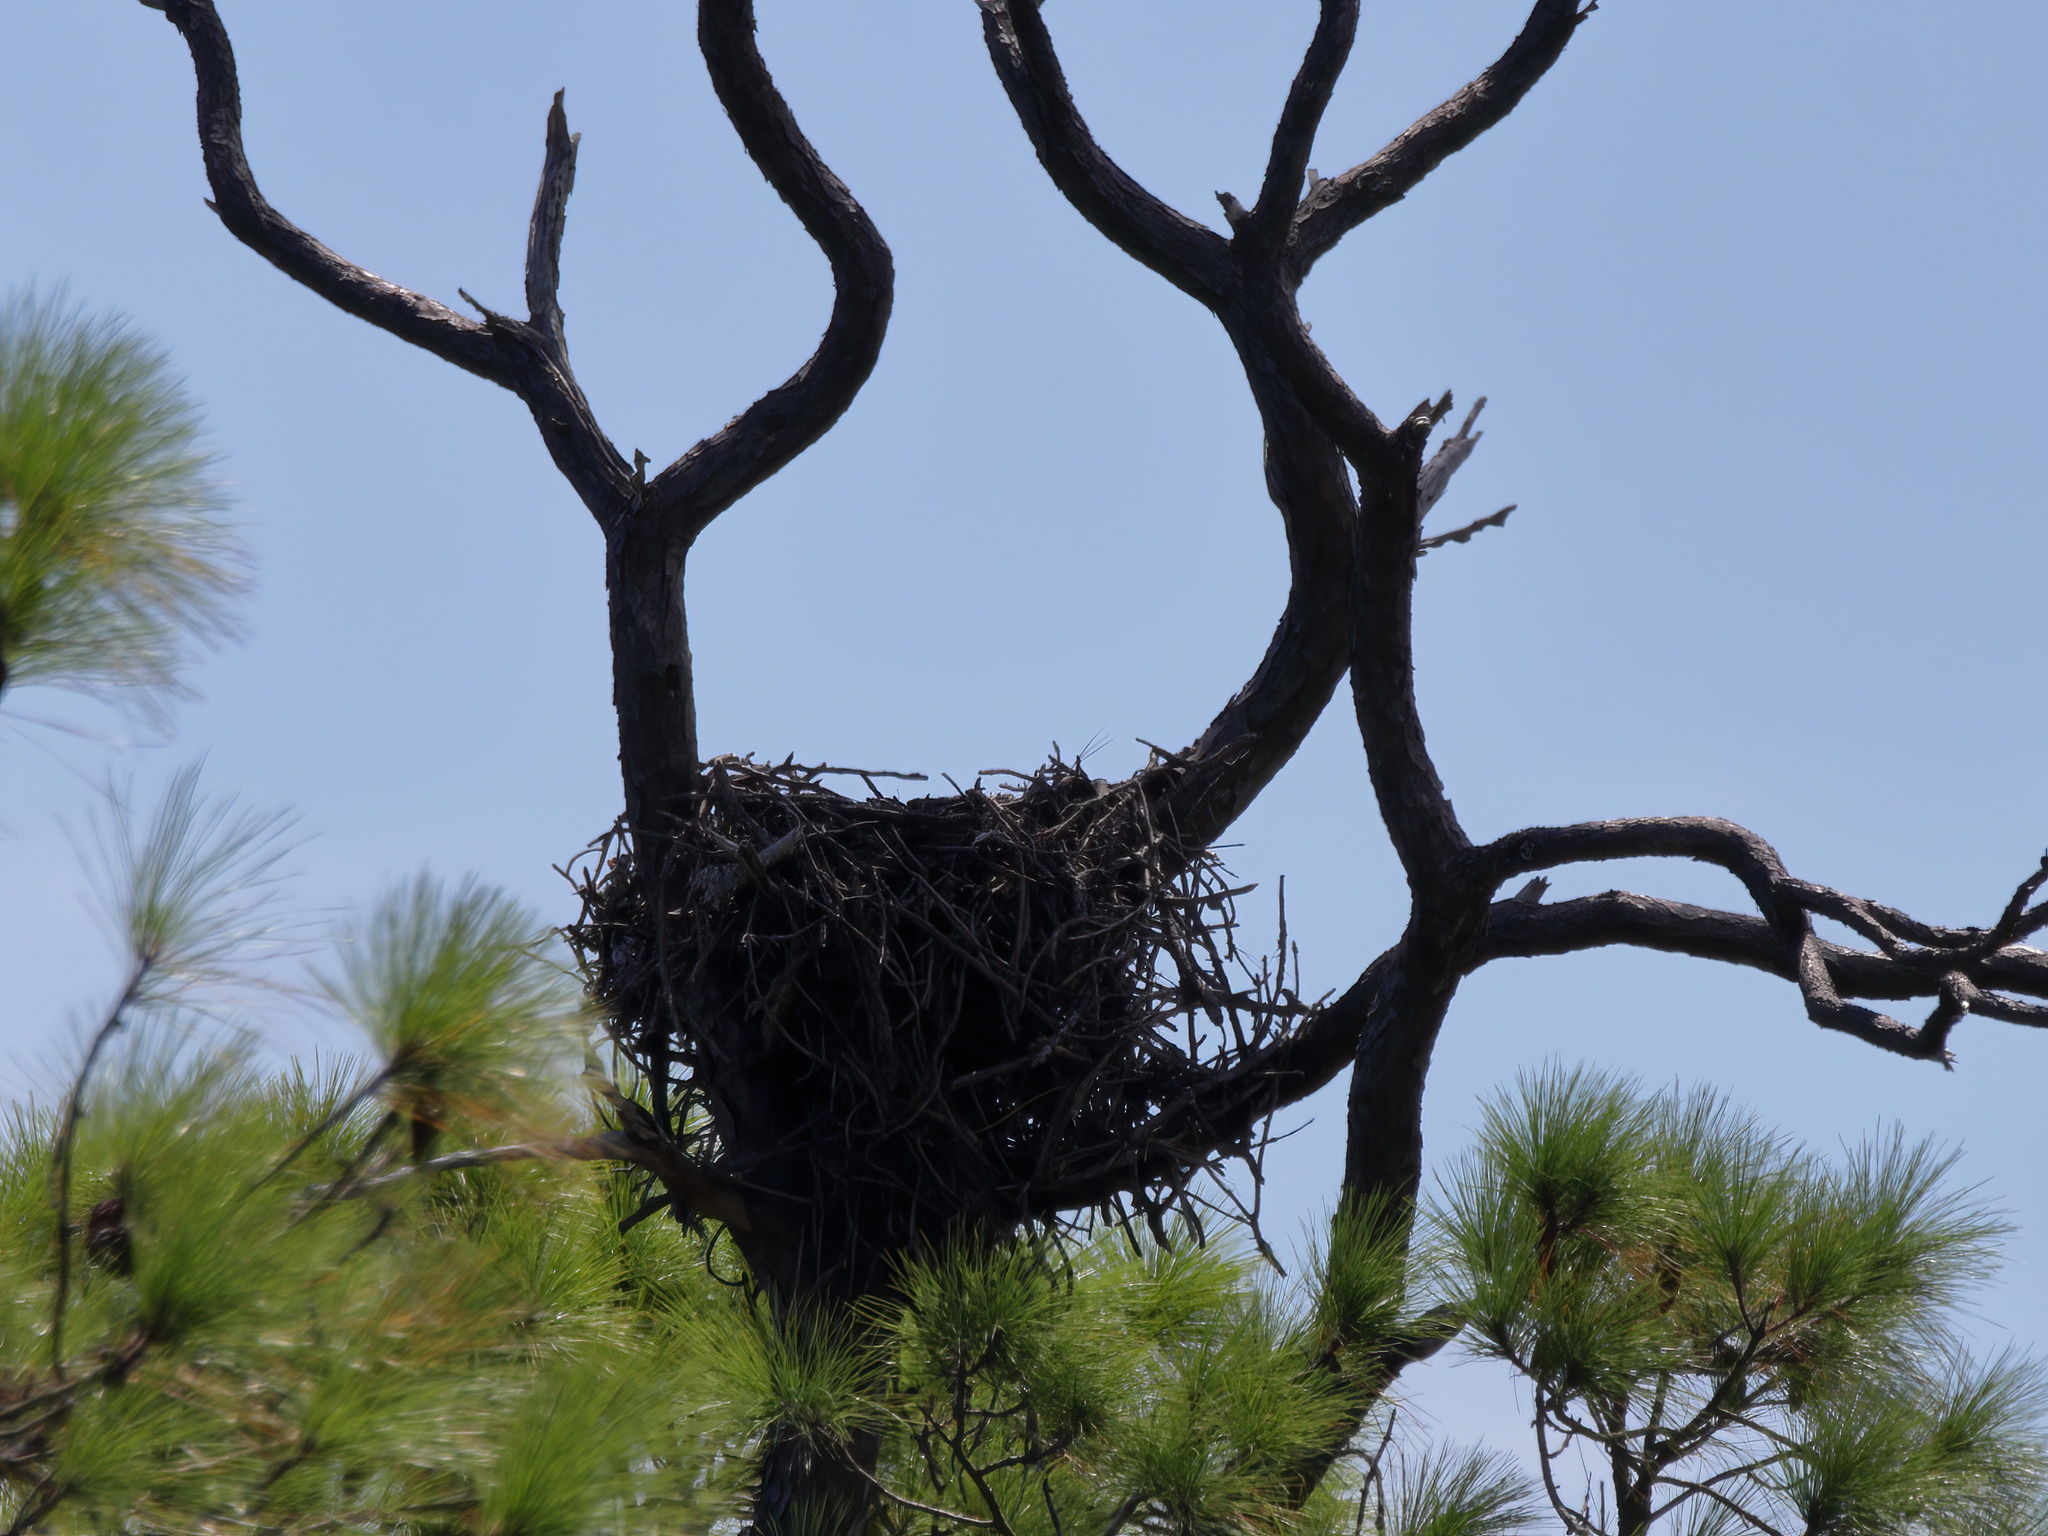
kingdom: Animalia
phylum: Chordata
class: Aves
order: Accipitriformes
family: Pandionidae
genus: Pandion
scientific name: Pandion haliaetus
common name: Osprey
